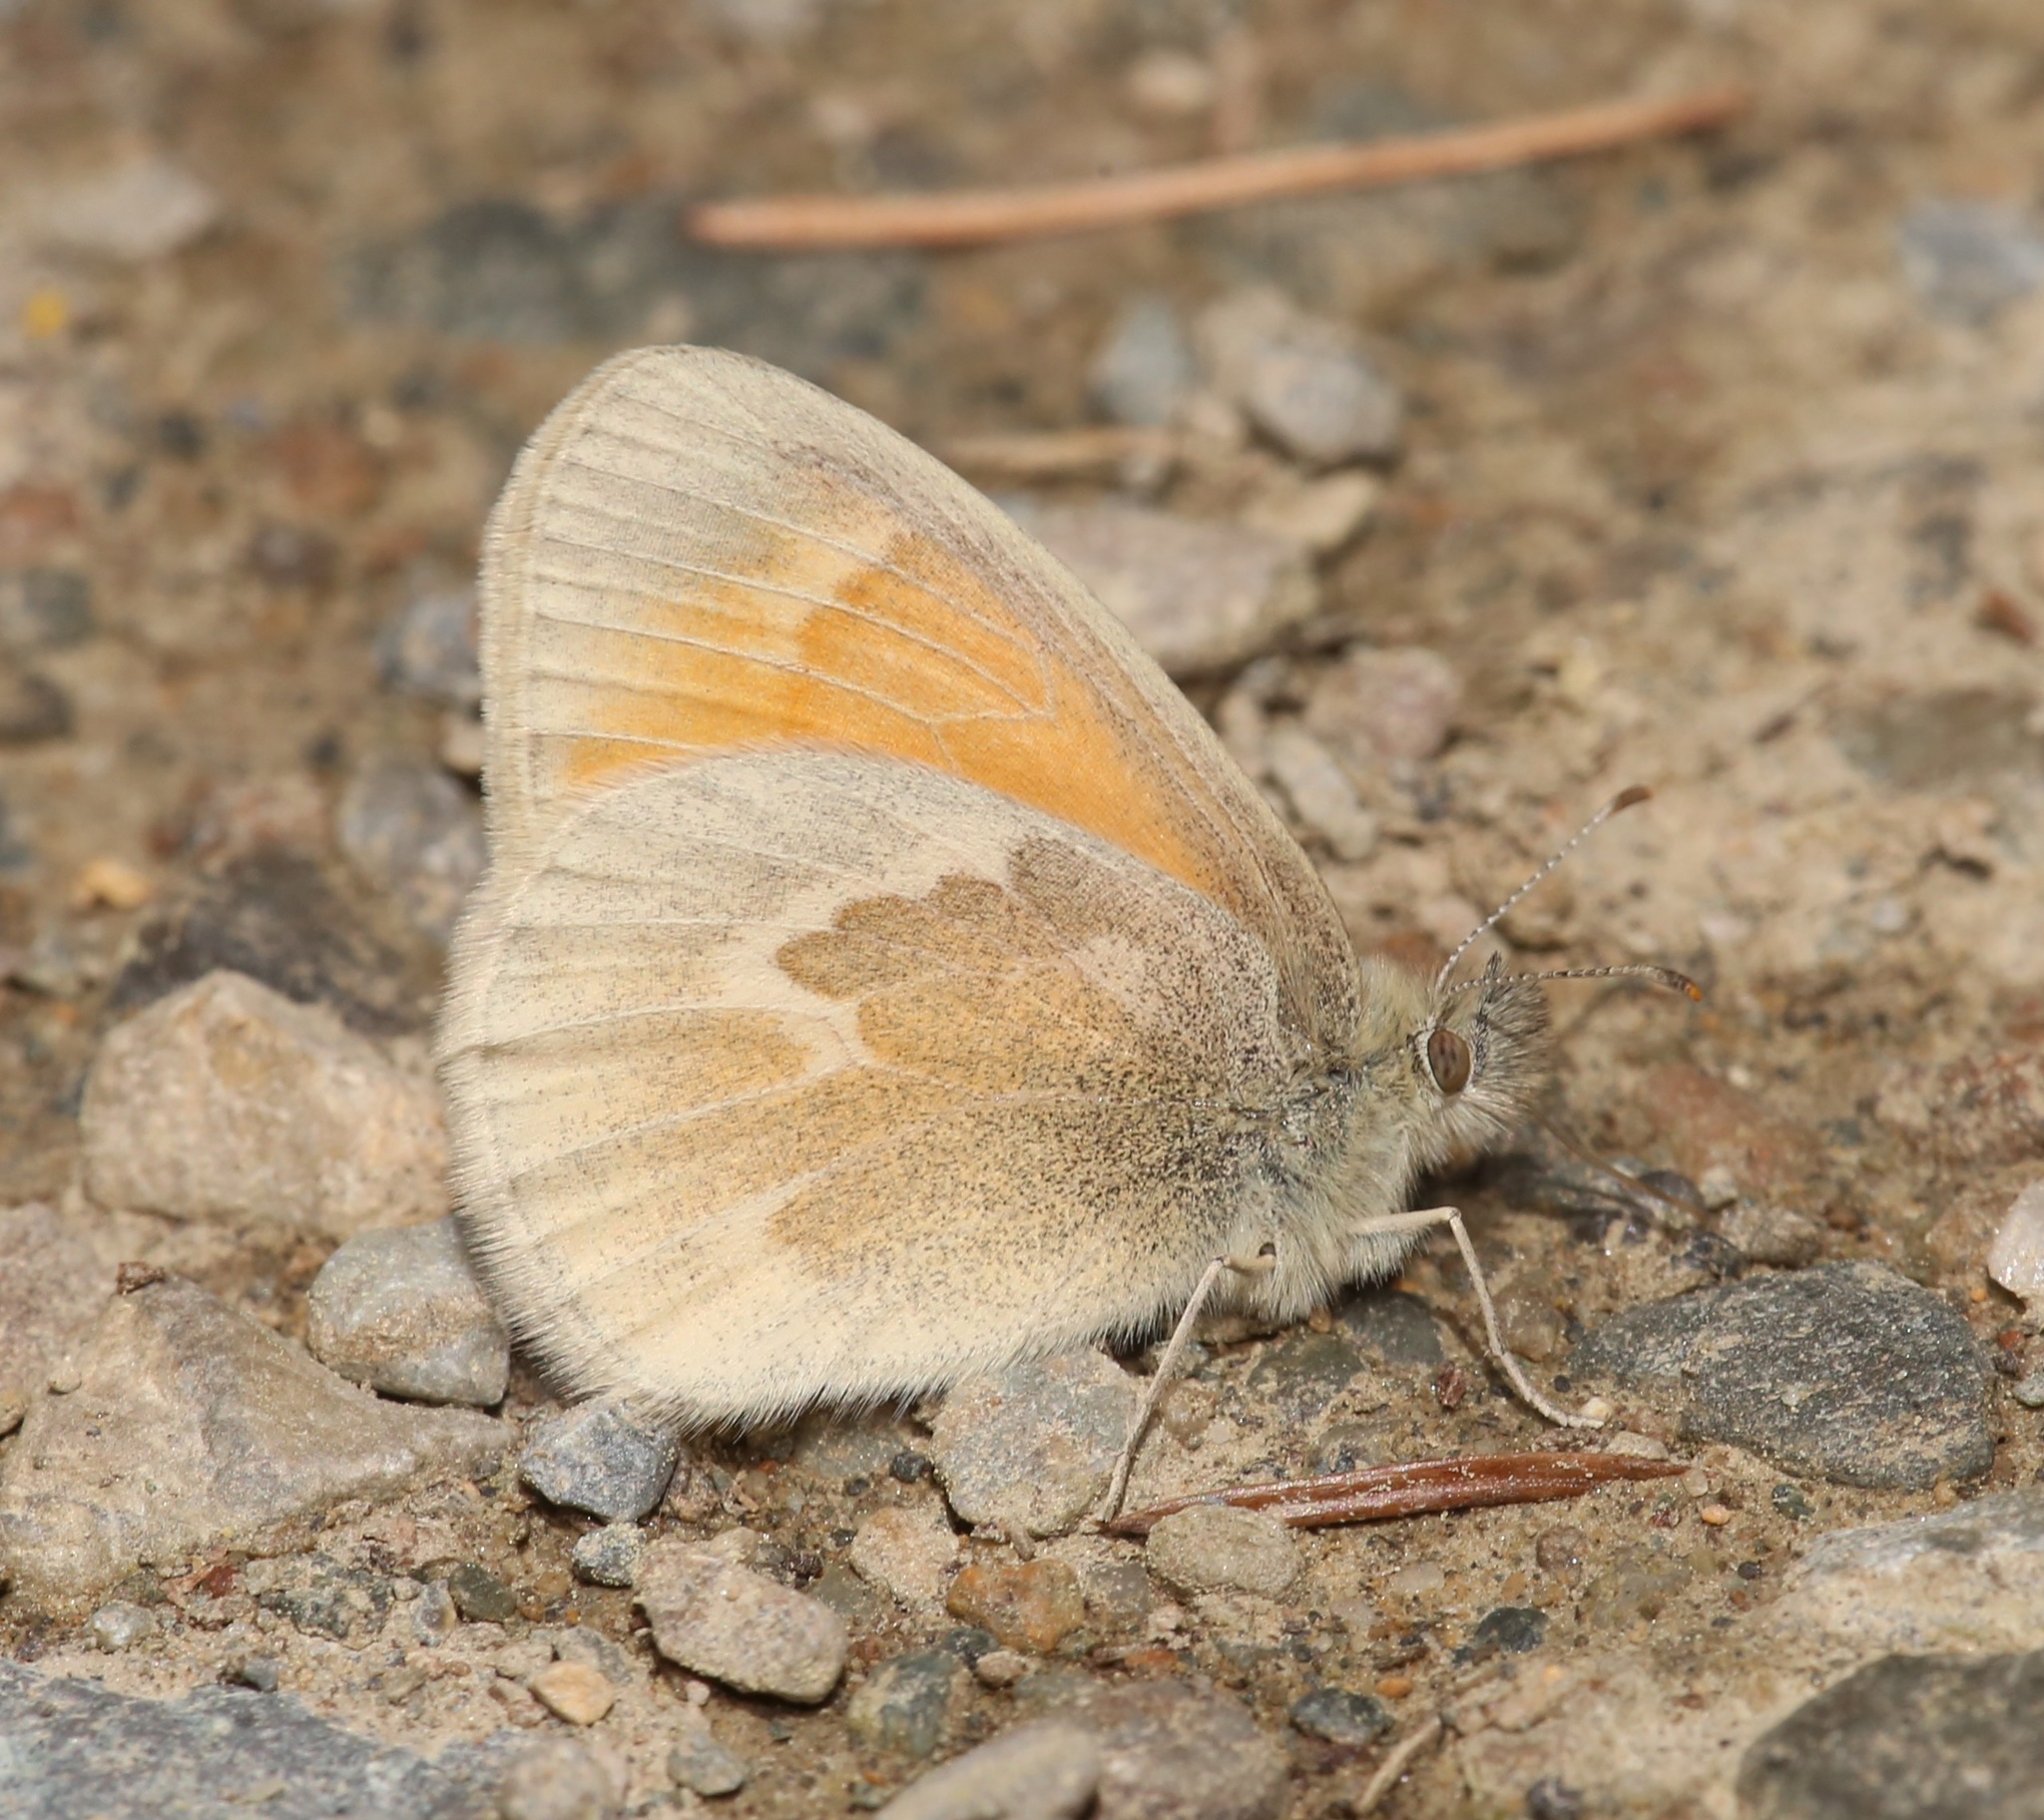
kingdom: Animalia
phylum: Arthropoda
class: Insecta
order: Lepidoptera
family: Nymphalidae
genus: Coenonympha
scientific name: Coenonympha california
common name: Common ringlet
